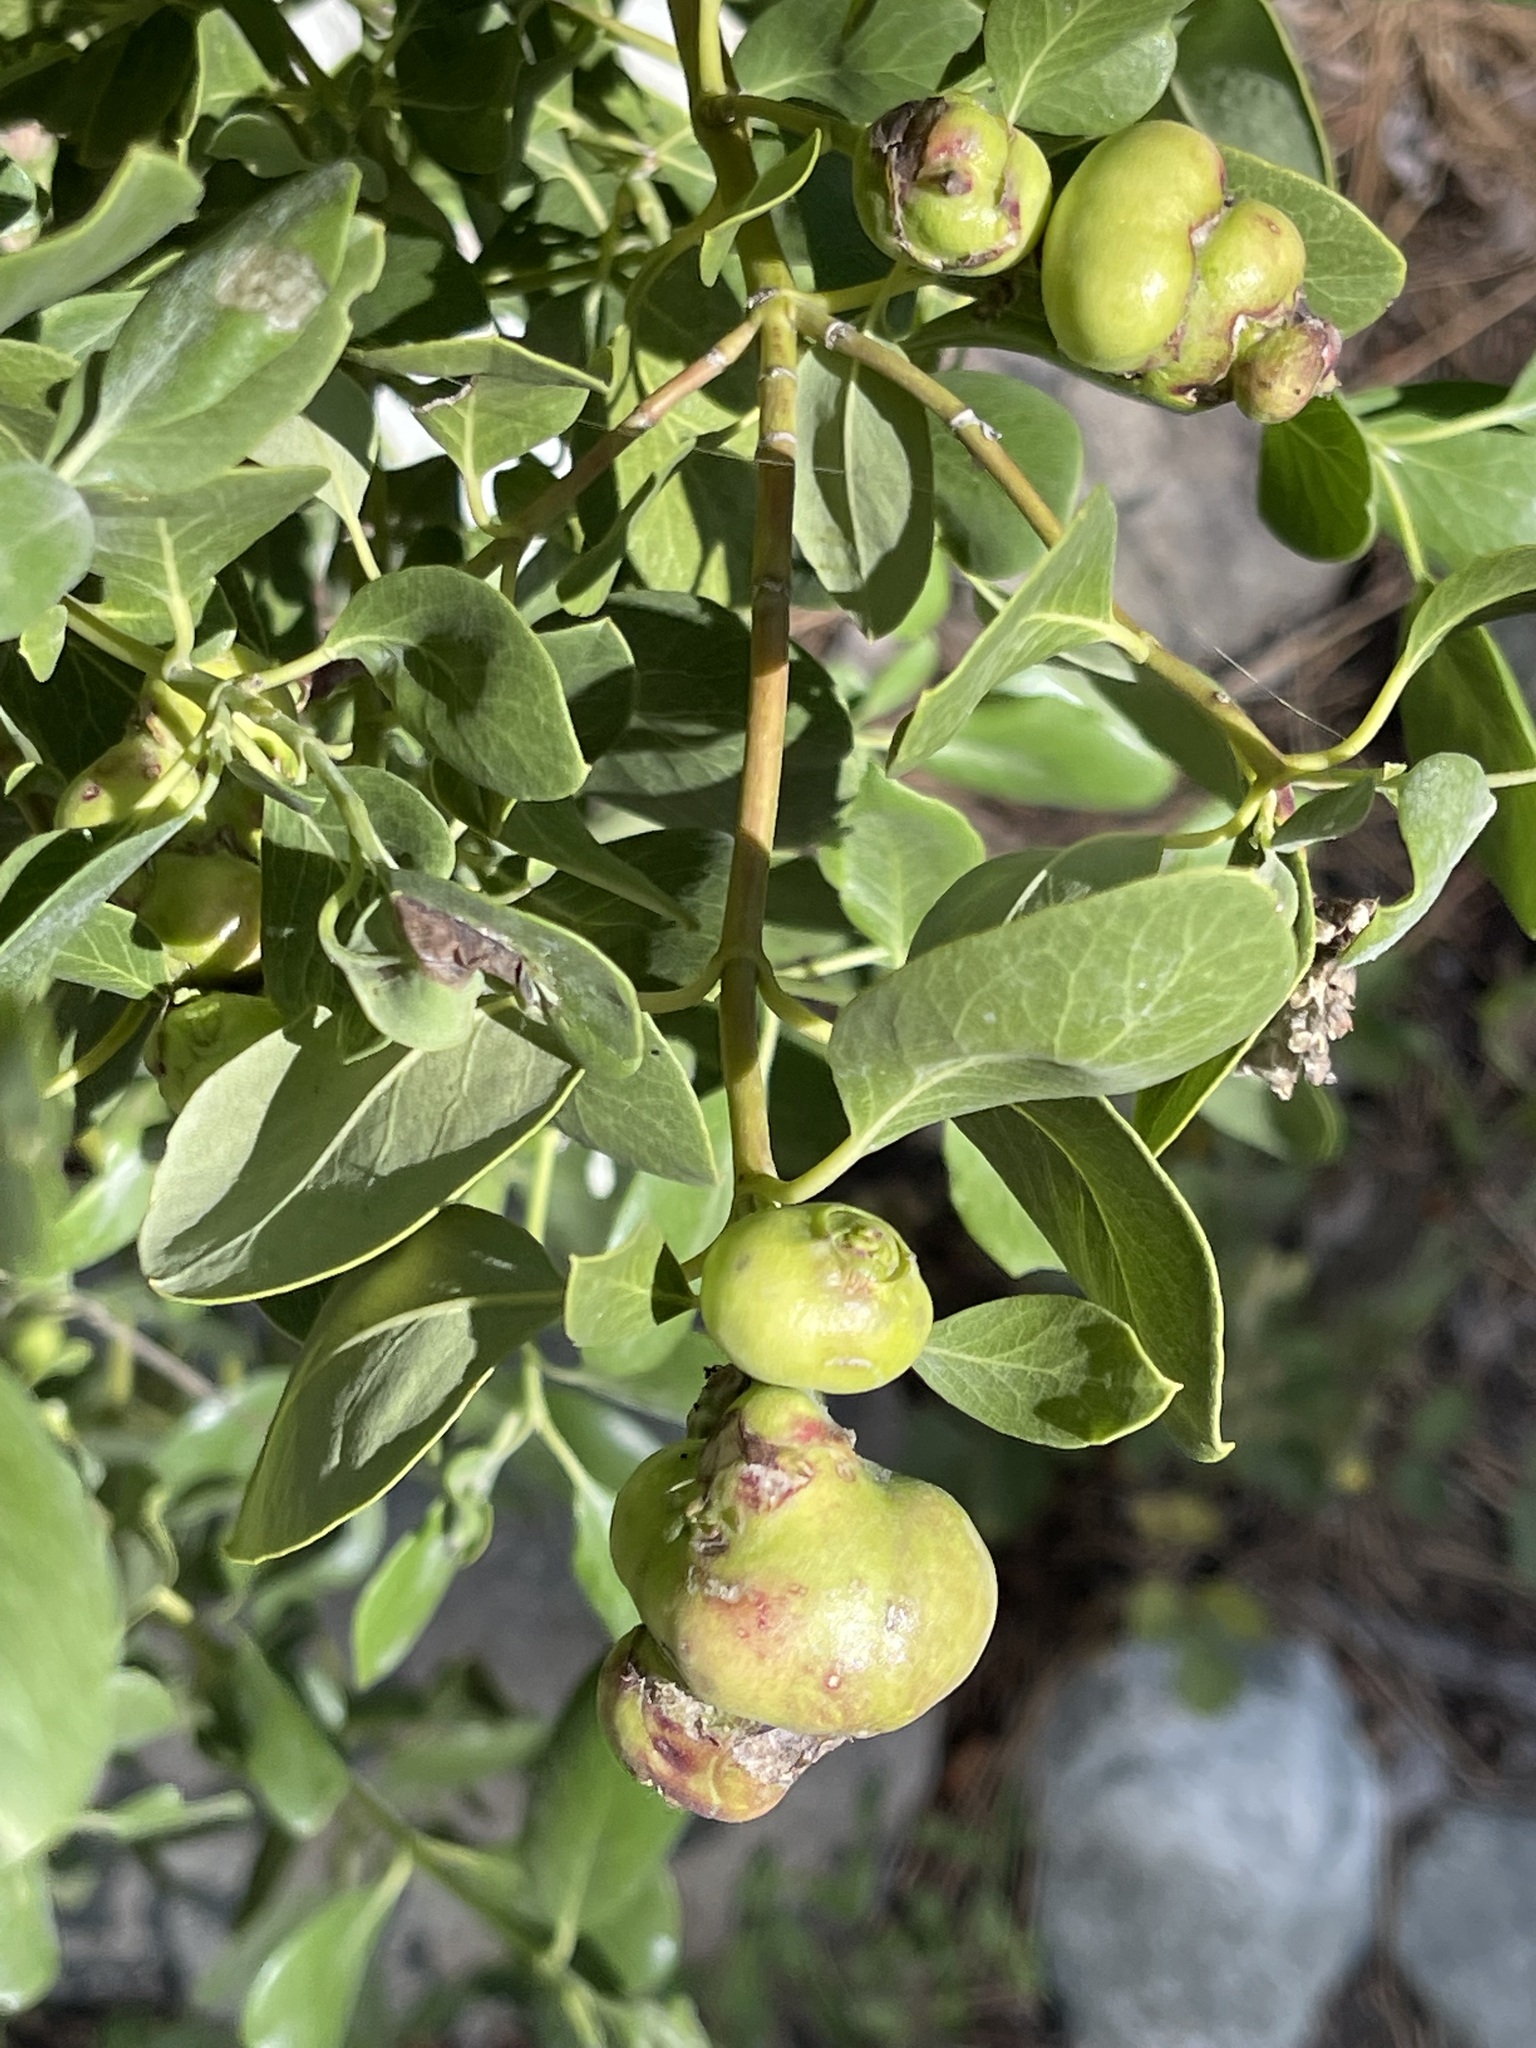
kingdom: Animalia
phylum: Arthropoda
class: Insecta
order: Diptera
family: Cecidomyiidae
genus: Asphondylia
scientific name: Asphondylia garryae
